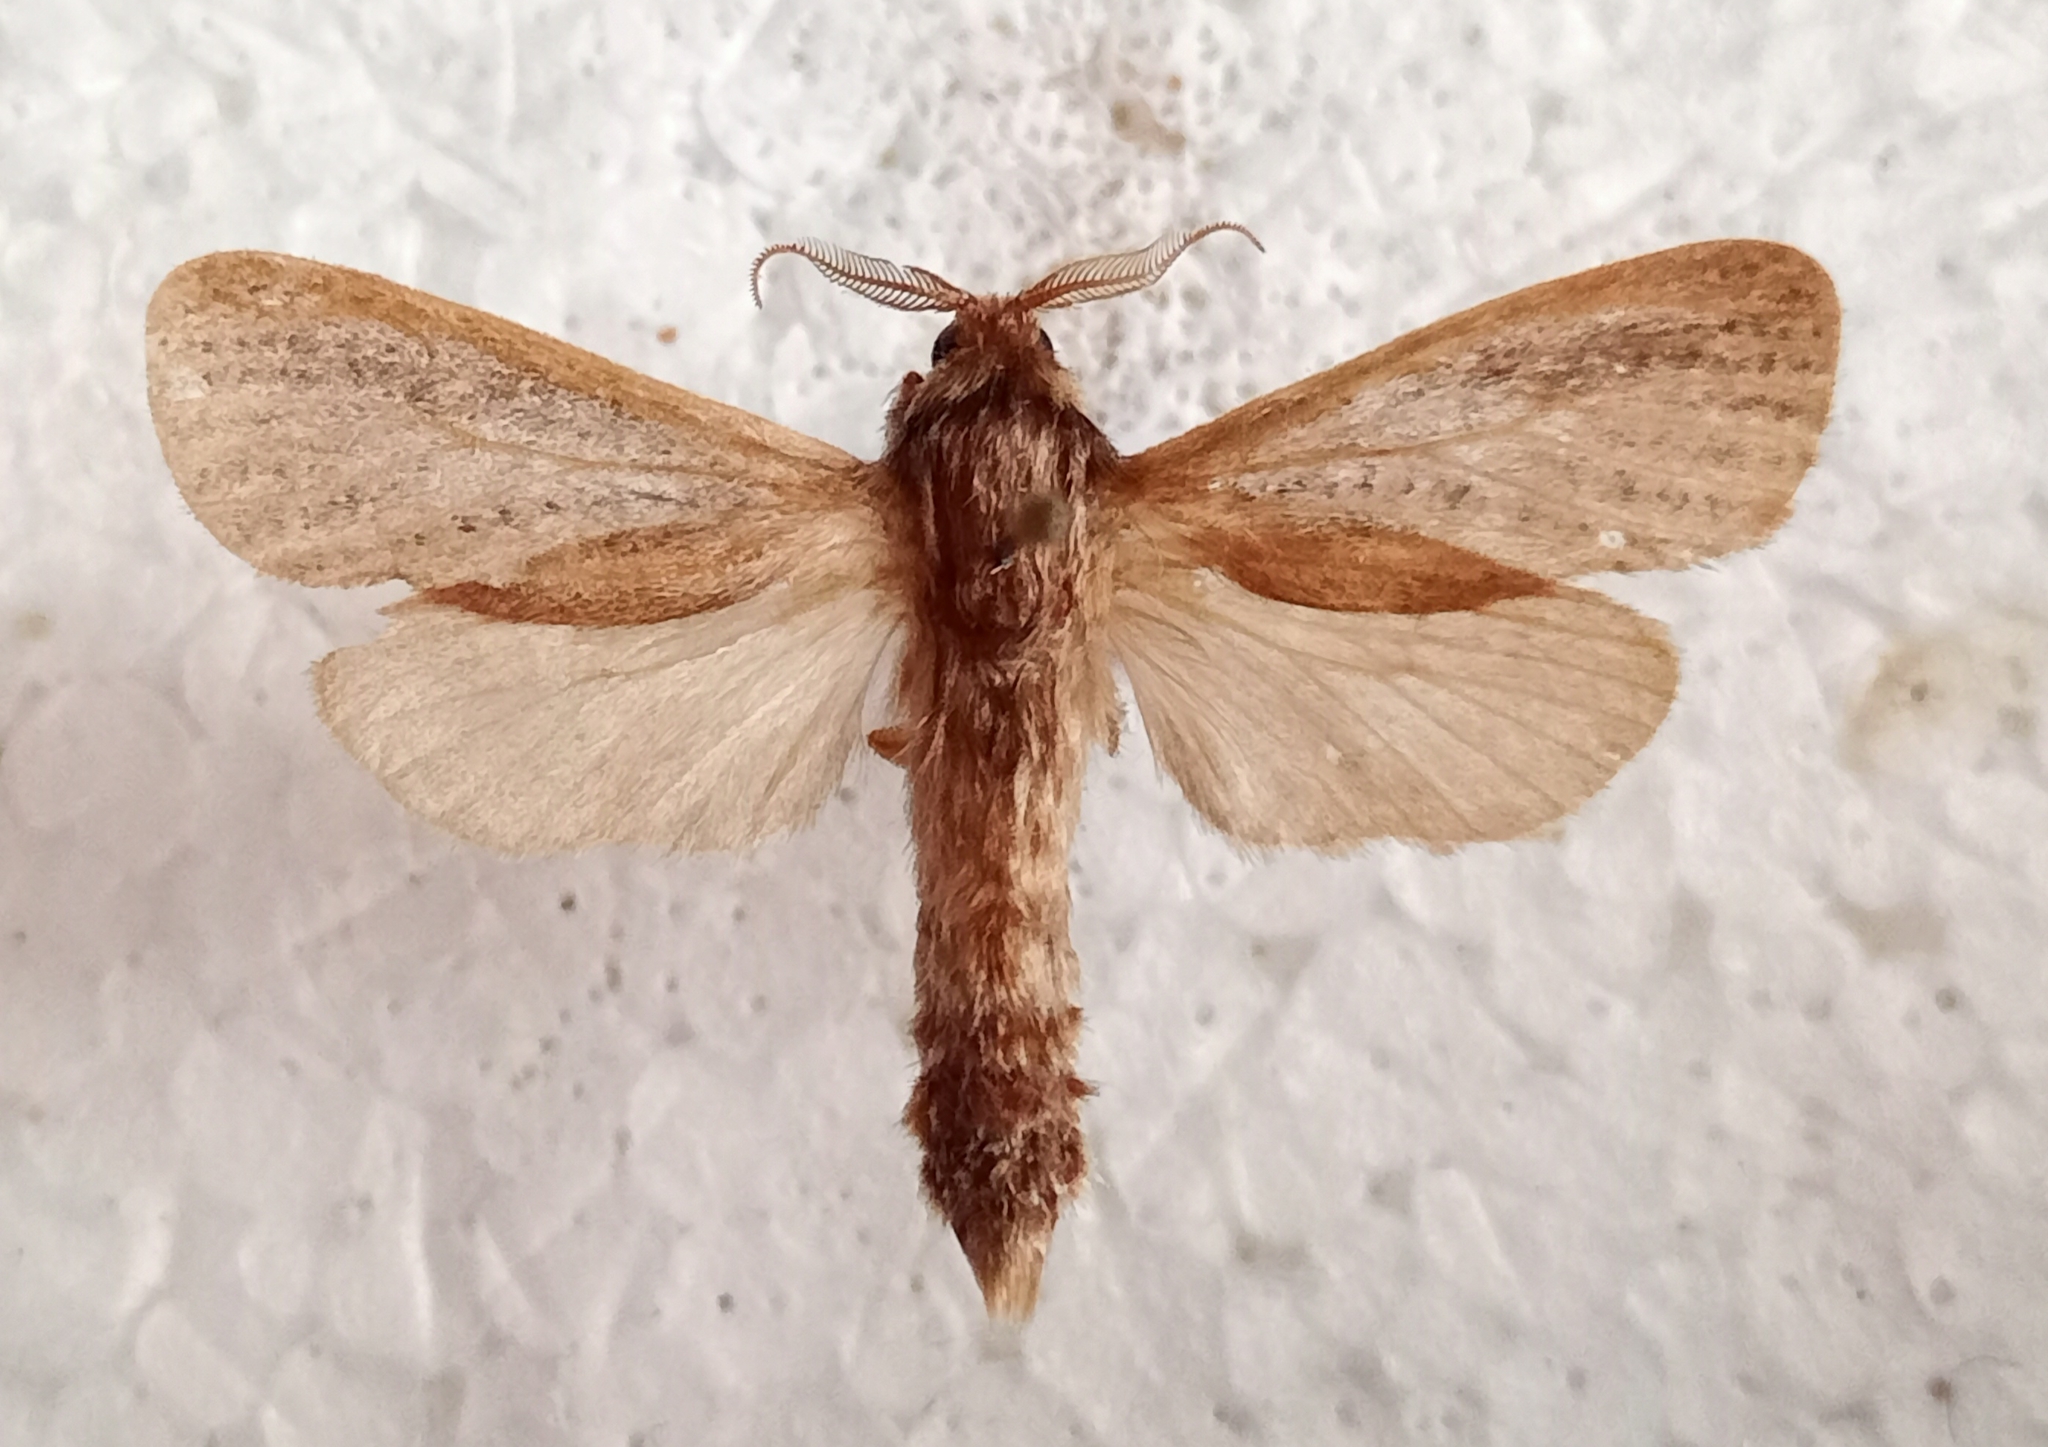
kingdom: Animalia
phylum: Arthropoda
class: Insecta
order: Lepidoptera
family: Cossidae
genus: Phragmataecia
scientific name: Phragmataecia castaneae
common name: Reed leopard
